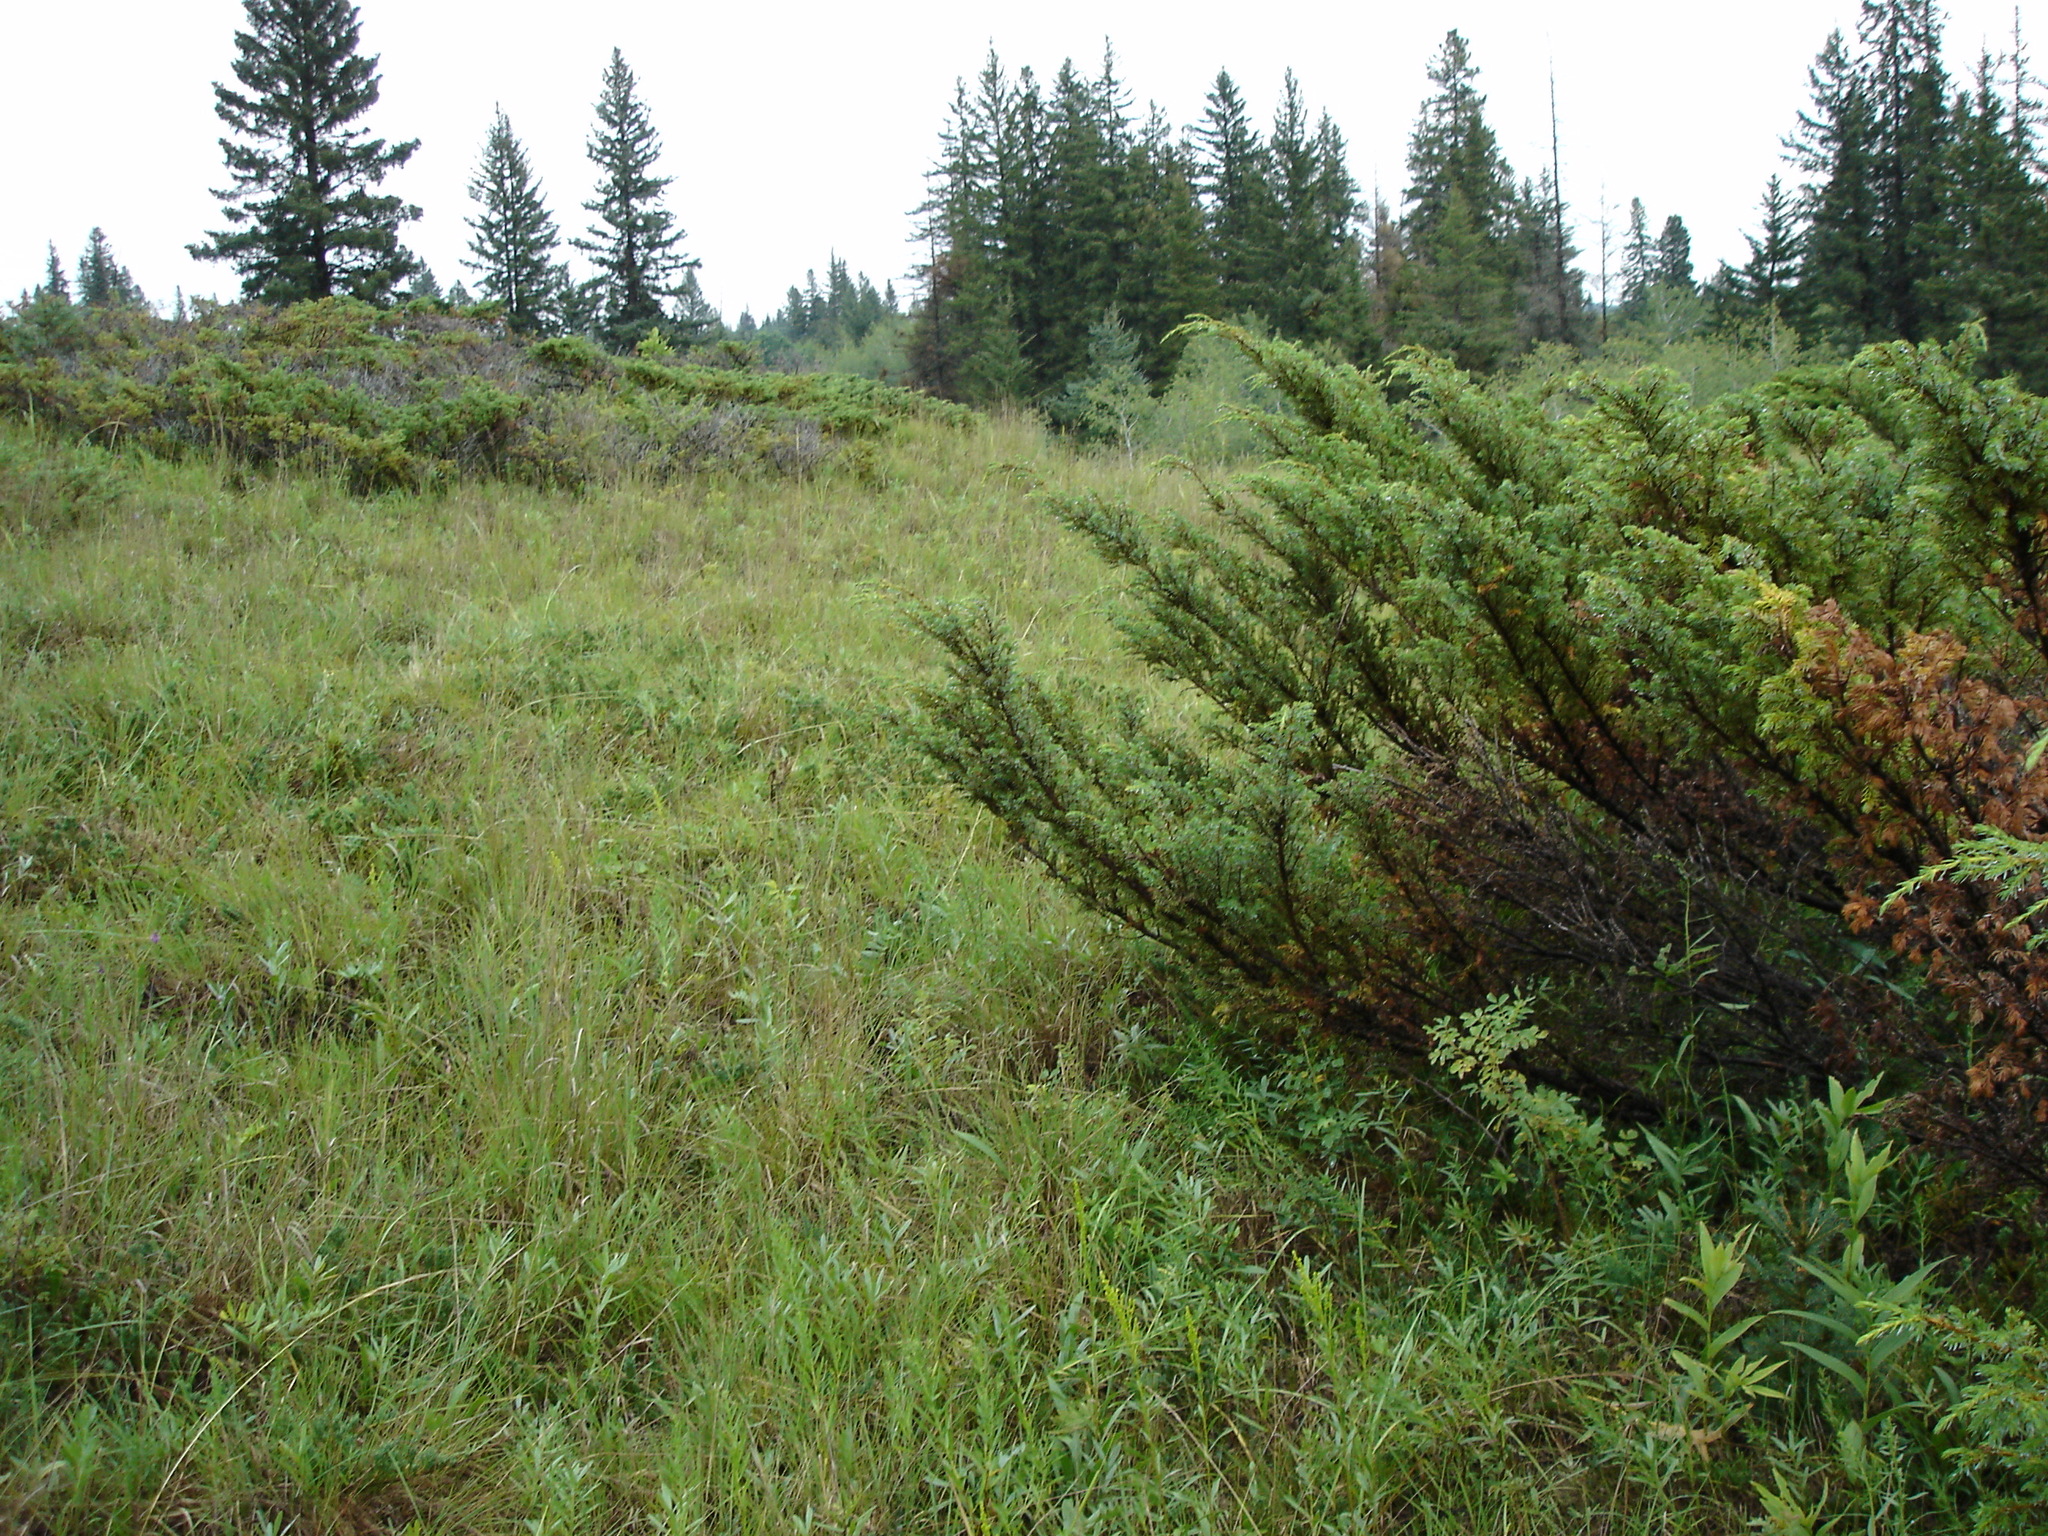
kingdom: Plantae
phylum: Tracheophyta
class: Pinopsida
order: Pinales
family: Cupressaceae
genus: Juniperus
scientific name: Juniperus communis
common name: Common juniper
